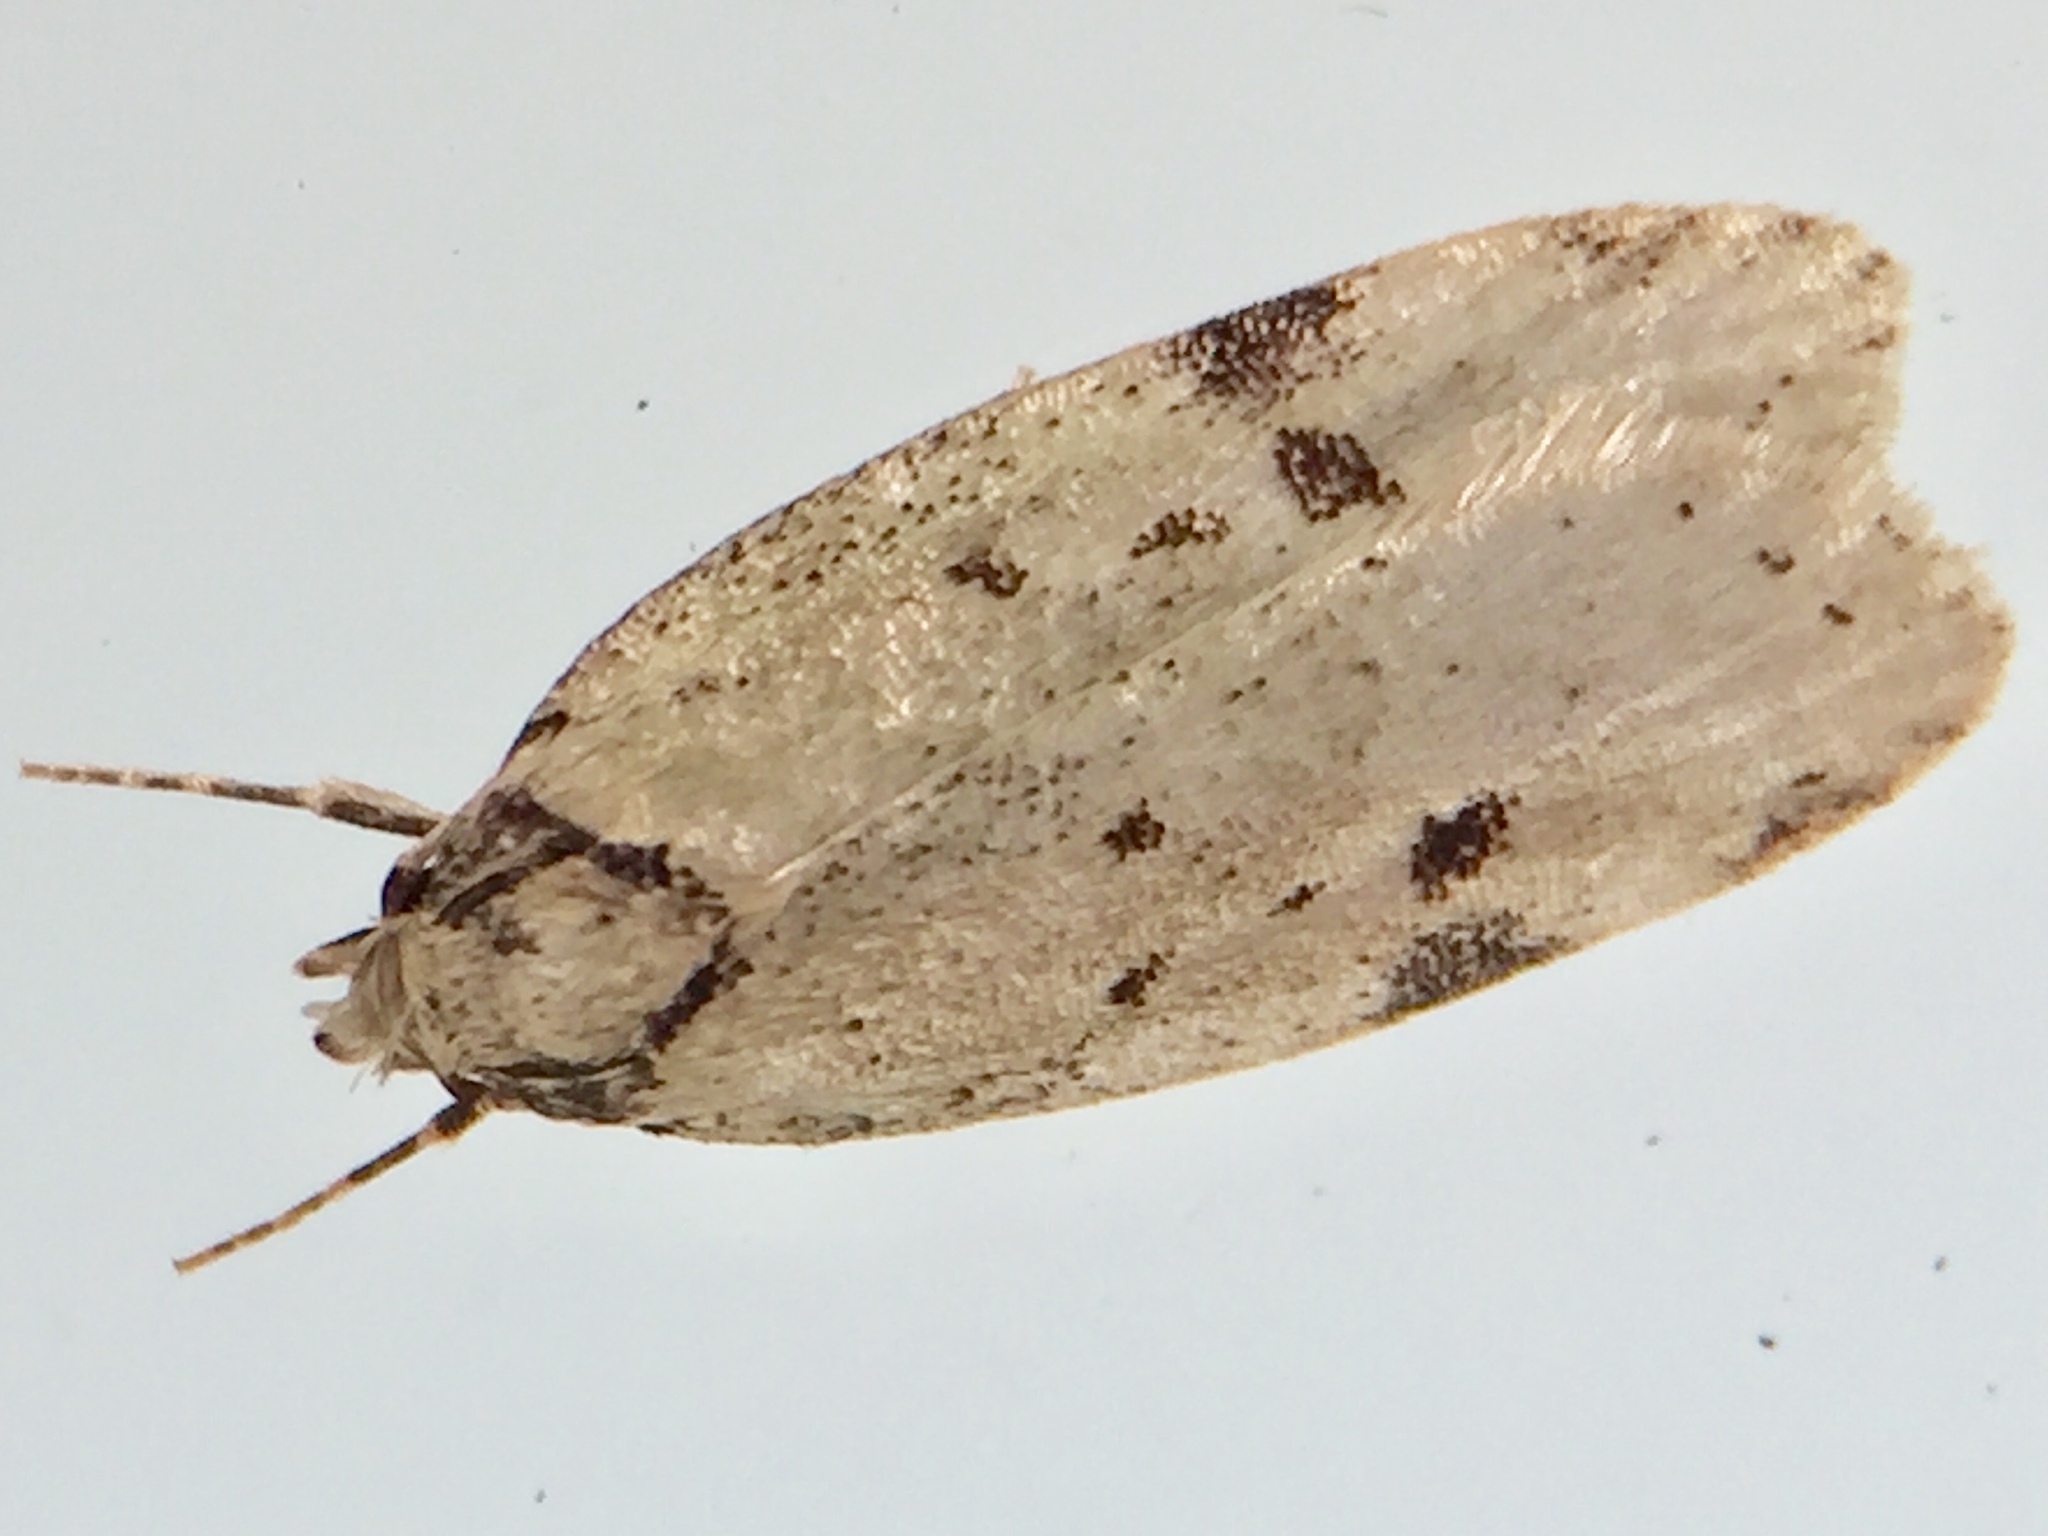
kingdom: Animalia
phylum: Arthropoda
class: Insecta
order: Lepidoptera
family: Oecophoridae
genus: Eulechria
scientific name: Eulechria zophoessa
